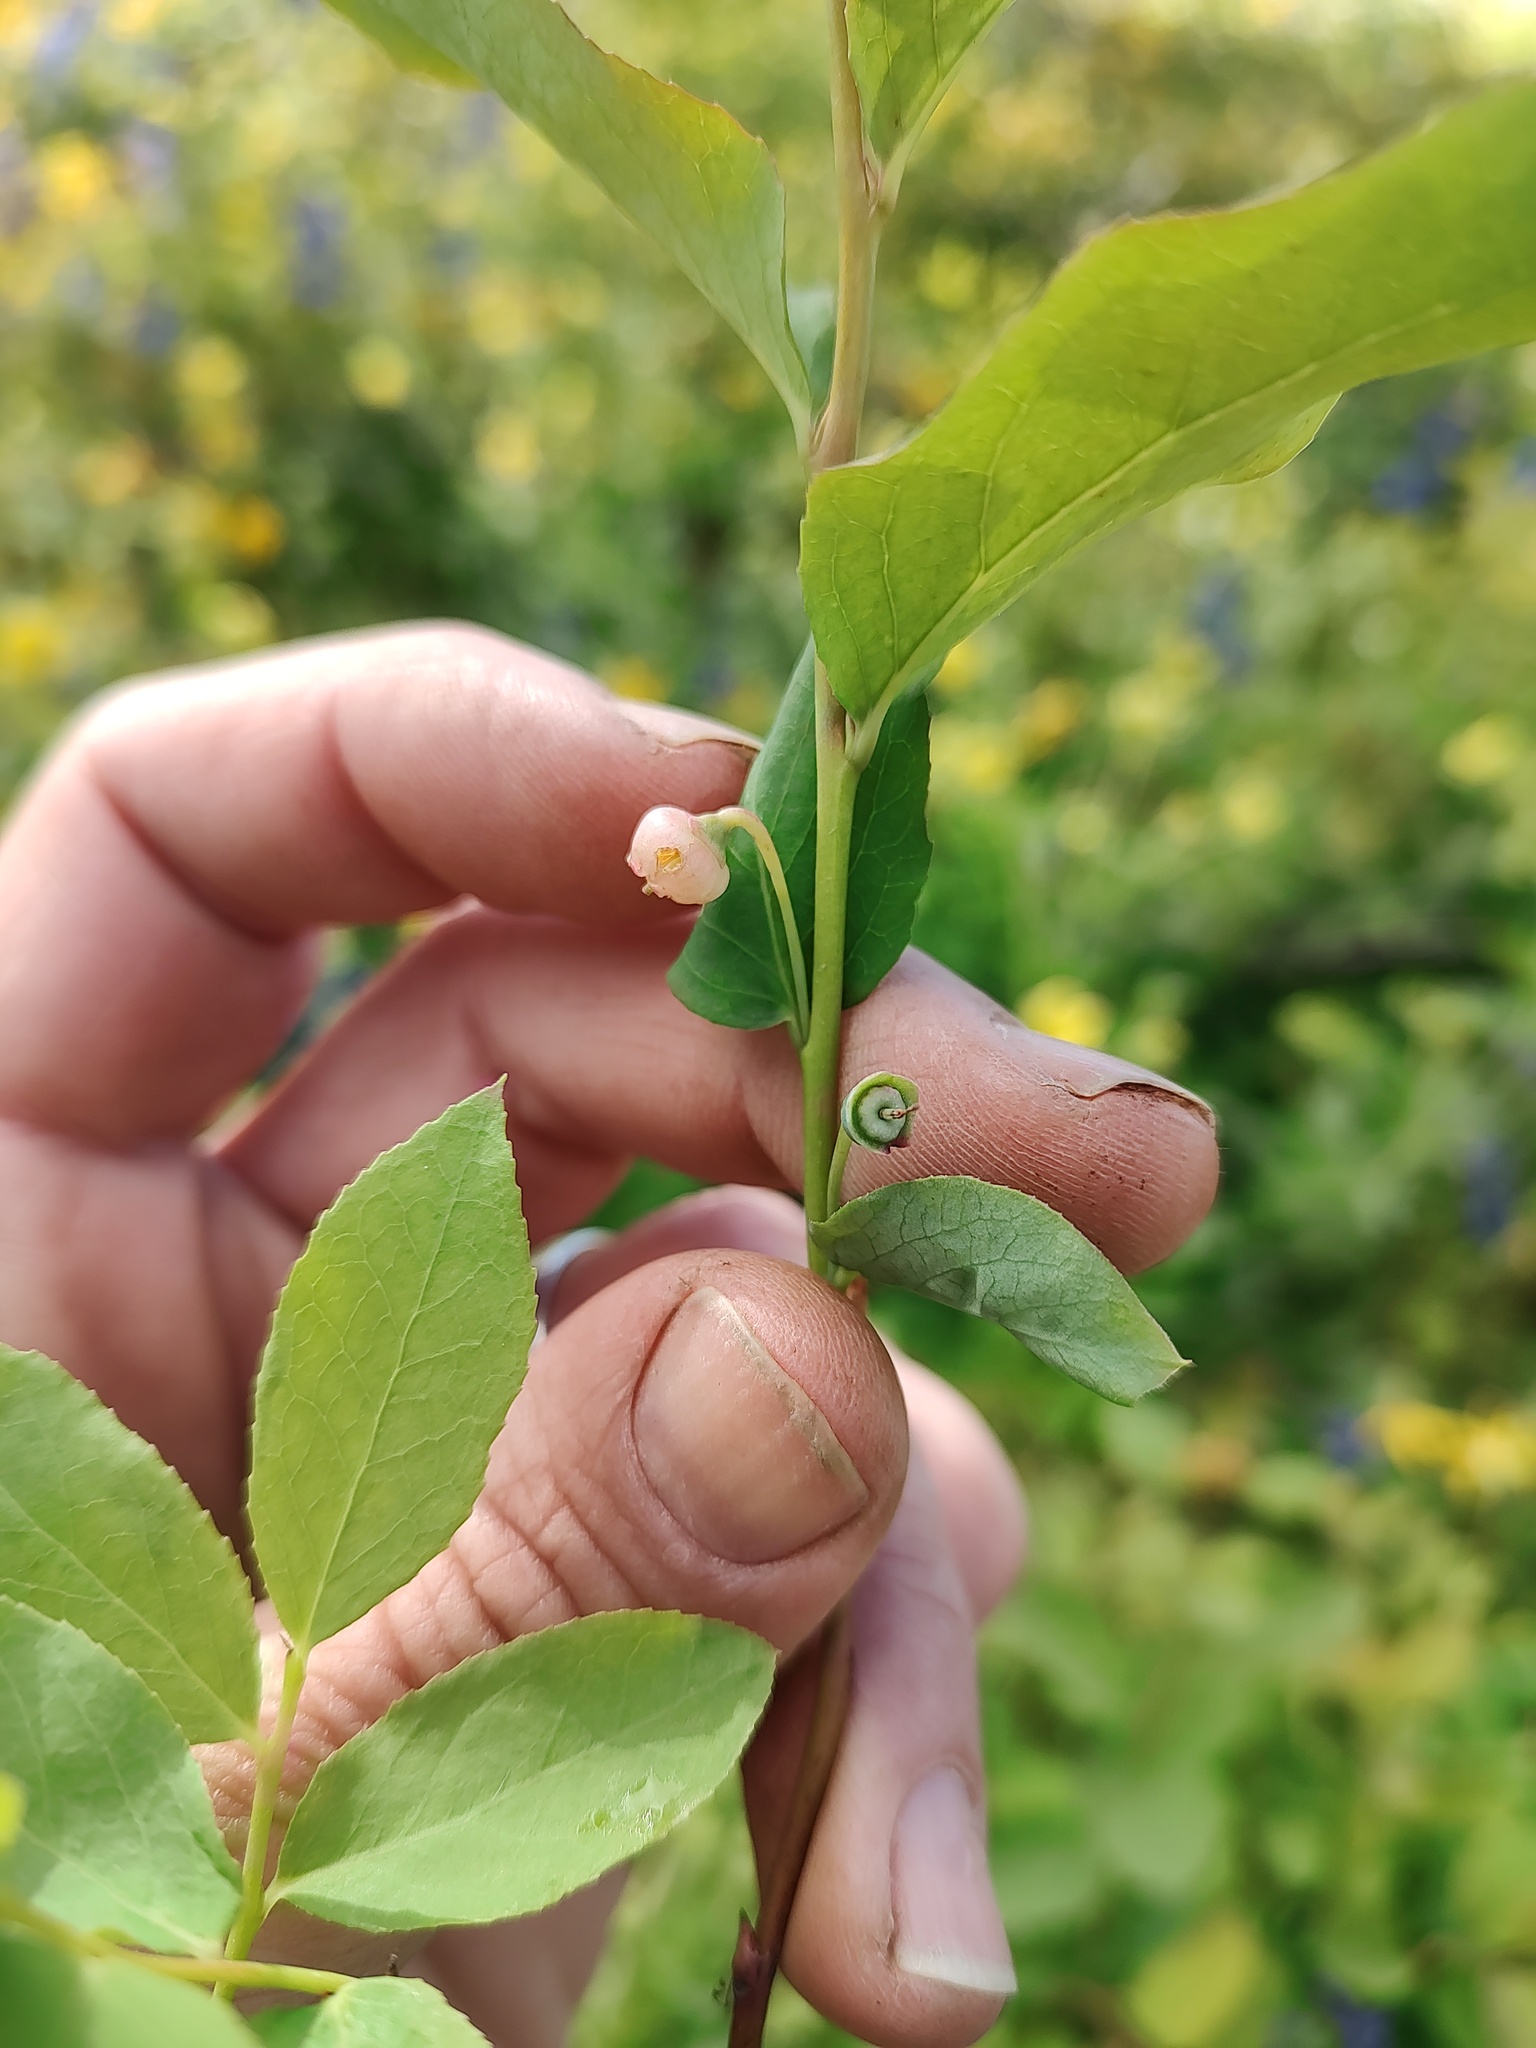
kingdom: Plantae
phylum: Tracheophyta
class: Magnoliopsida
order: Ericales
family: Ericaceae
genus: Vaccinium
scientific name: Vaccinium membranaceum
